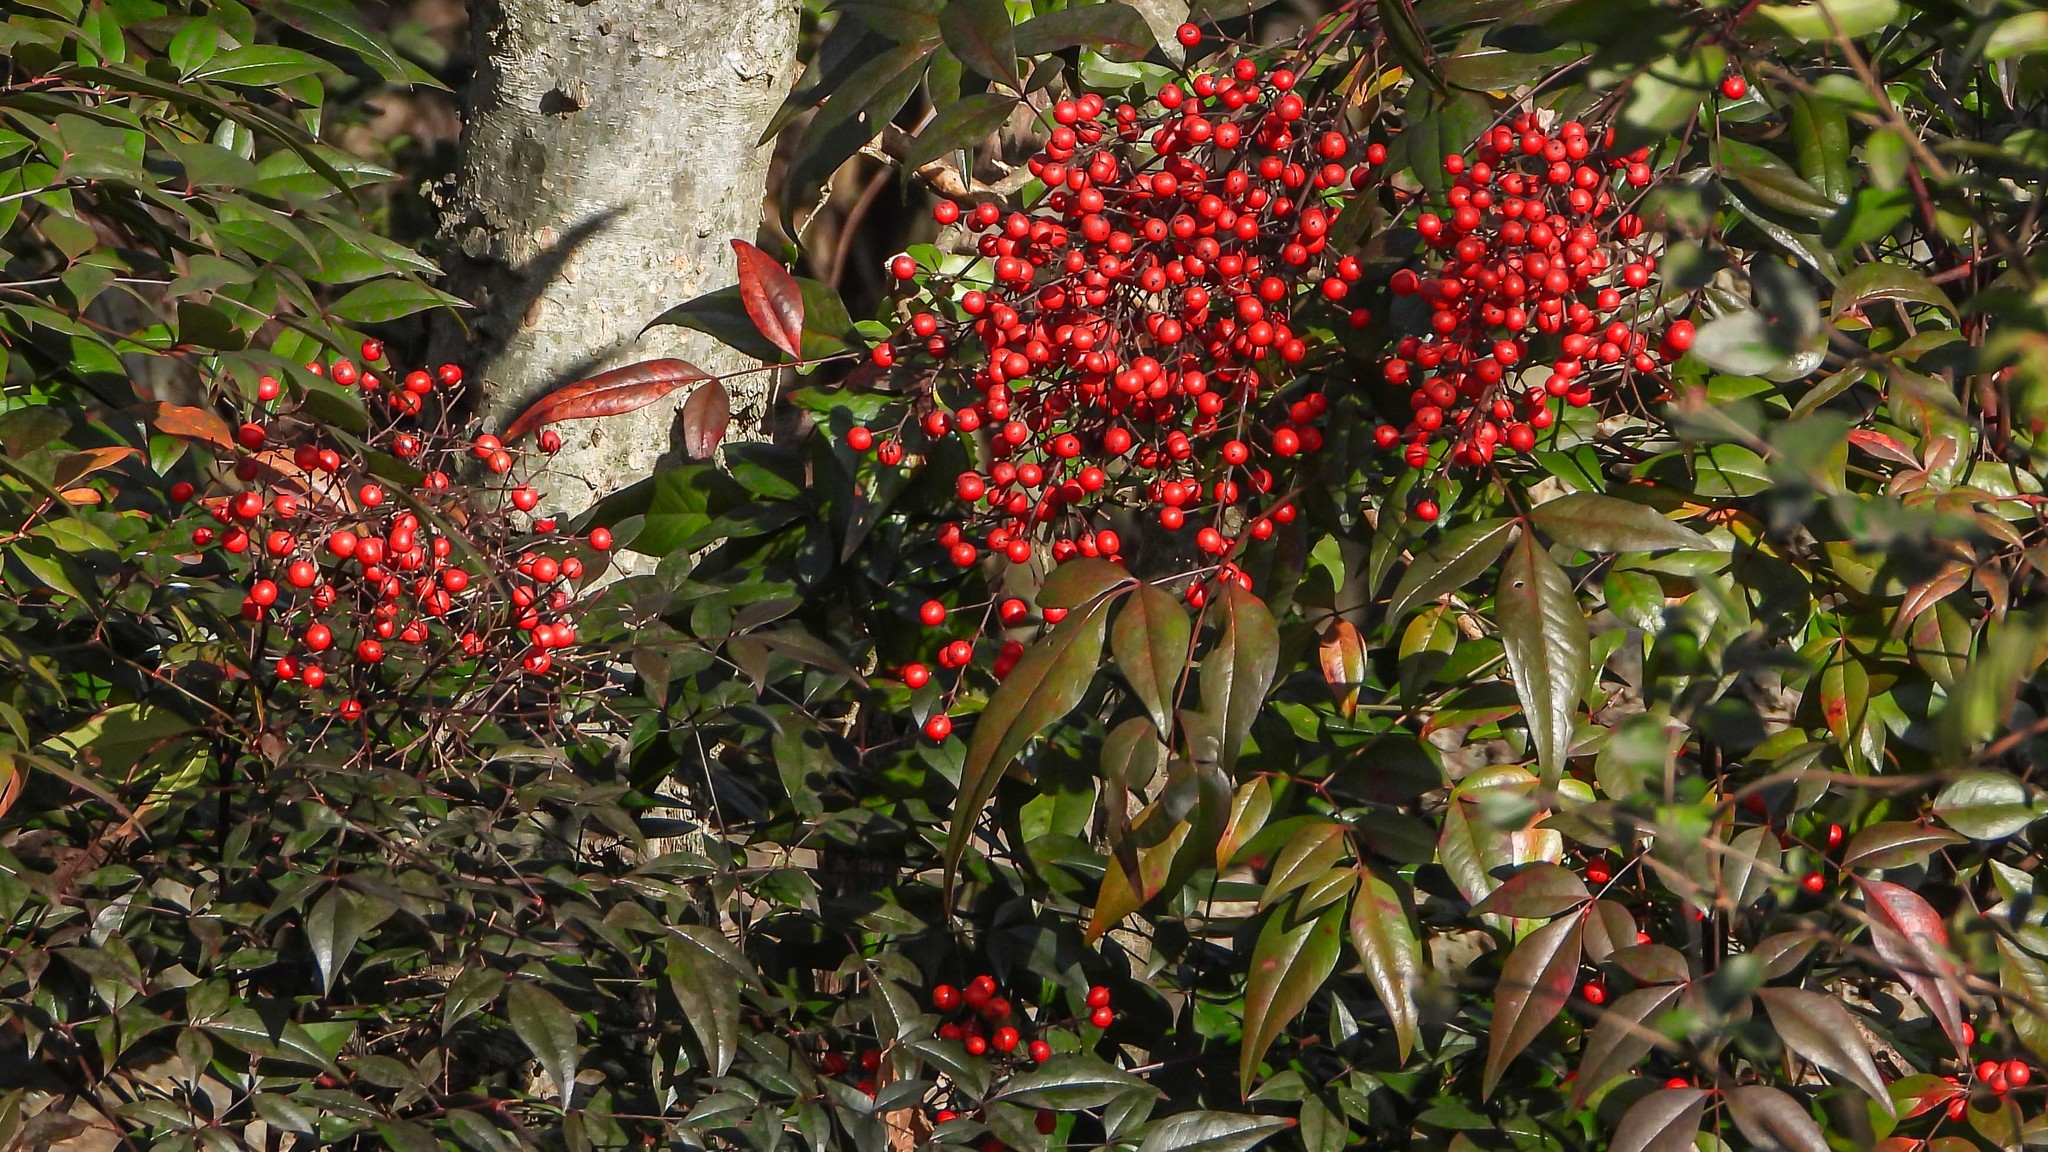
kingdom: Plantae
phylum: Tracheophyta
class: Magnoliopsida
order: Ranunculales
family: Berberidaceae
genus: Nandina
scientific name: Nandina domestica
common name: Sacred bamboo
